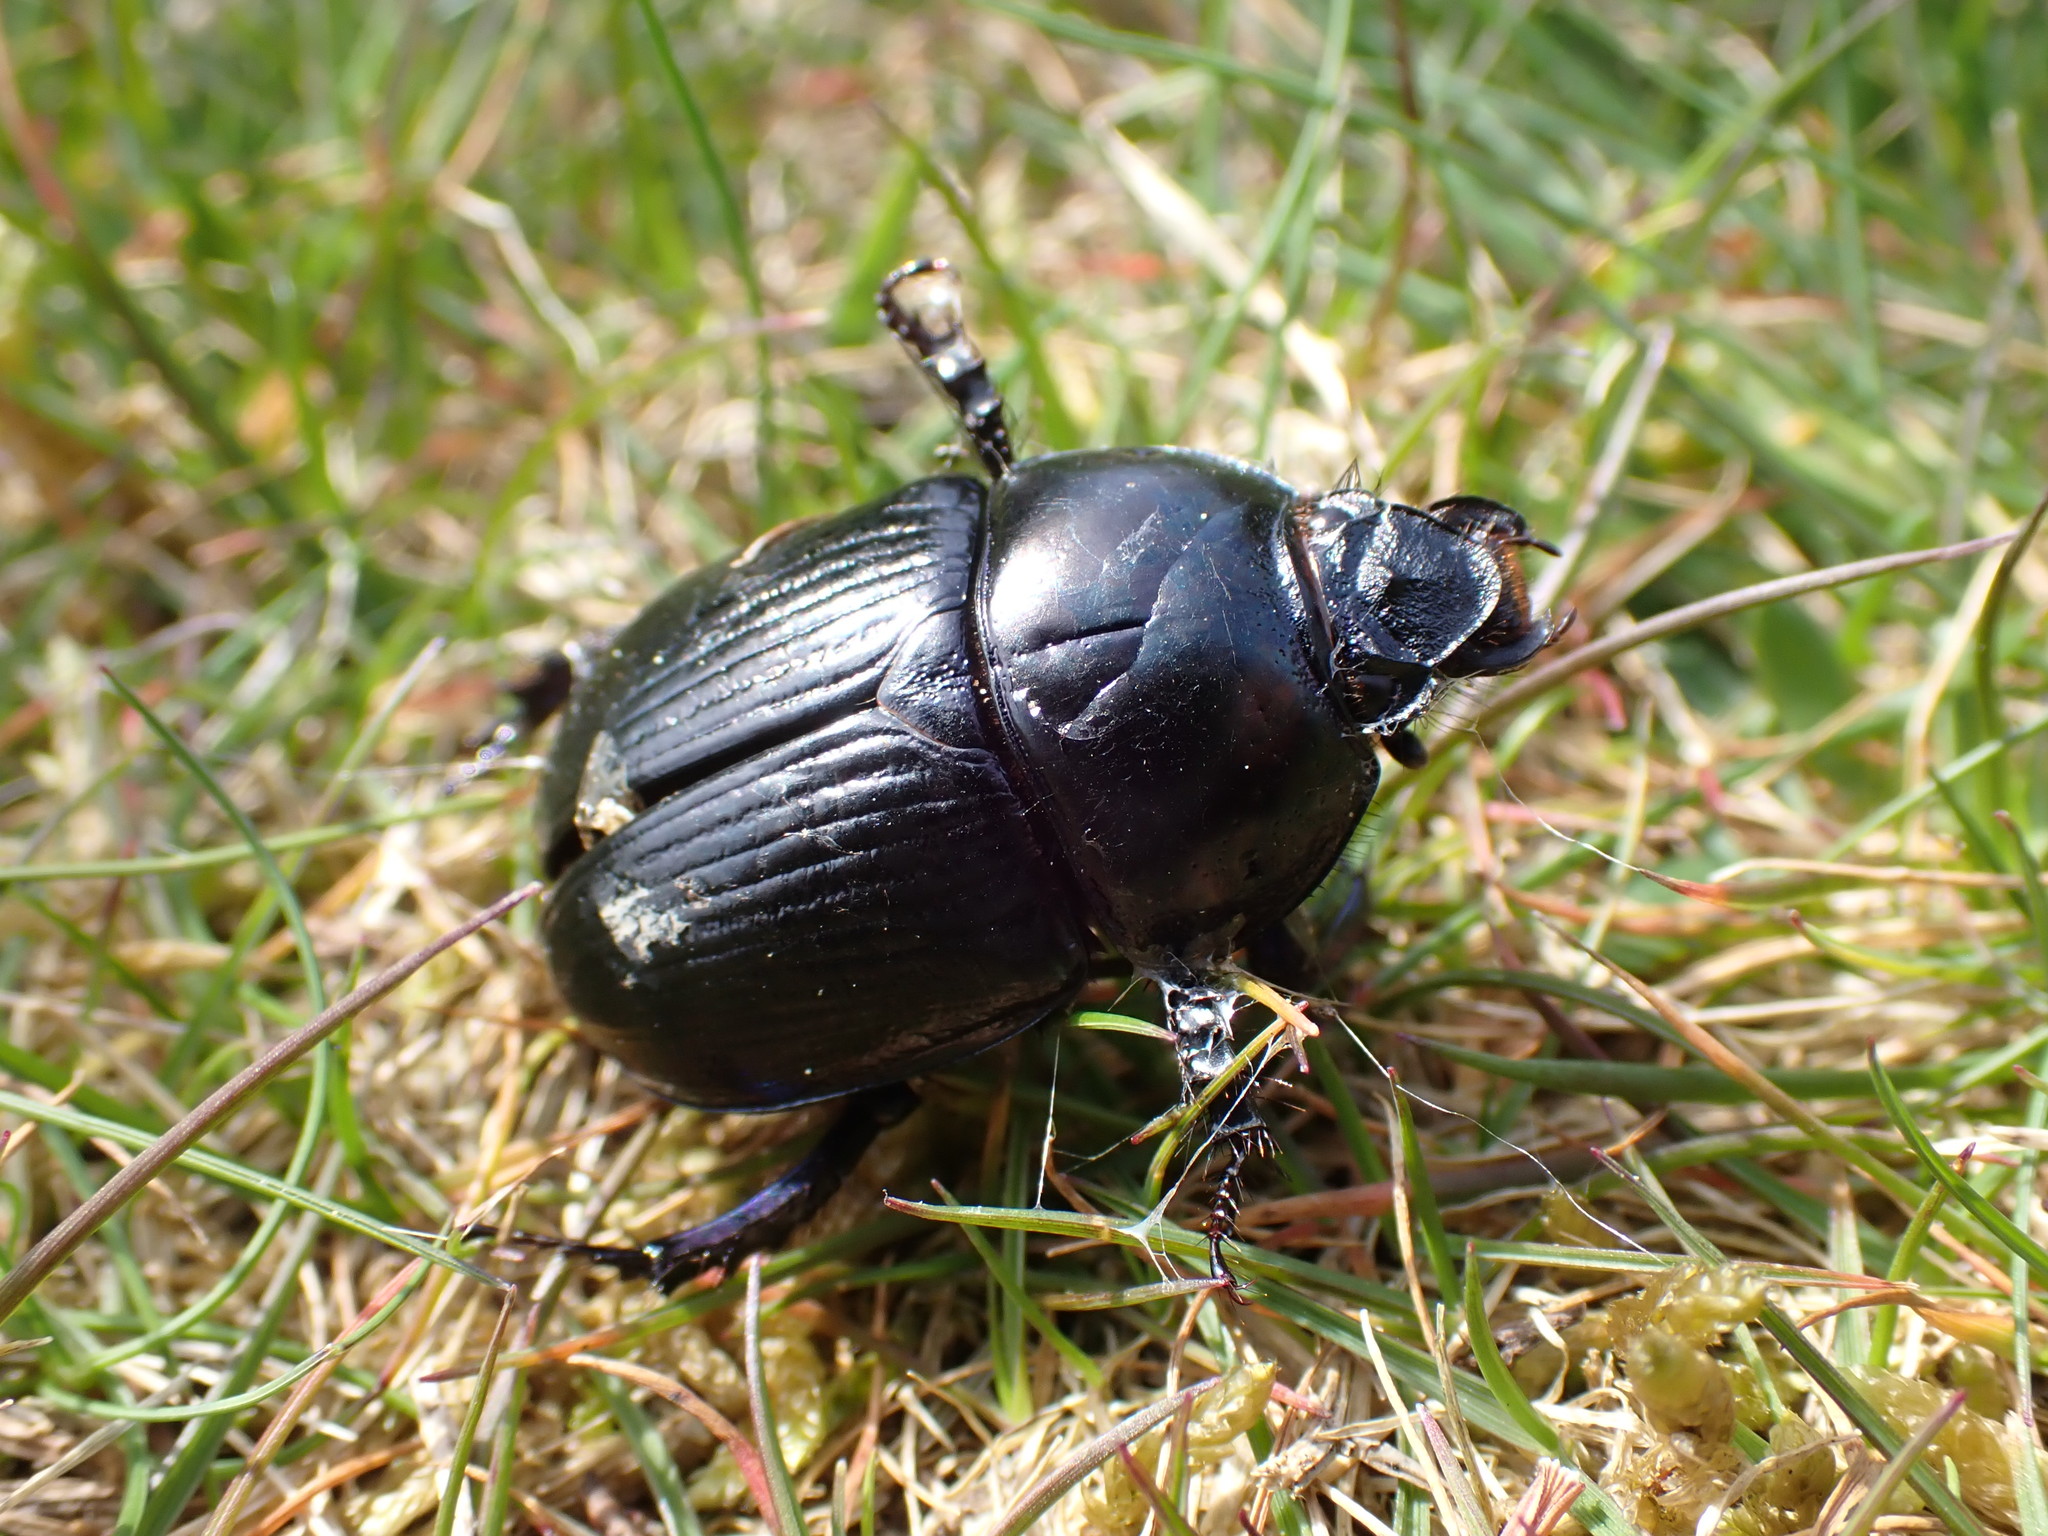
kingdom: Animalia
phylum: Arthropoda
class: Insecta
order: Coleoptera
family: Geotrupidae
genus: Geotrupes
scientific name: Geotrupes stercorarius
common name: Earth-boring dung beetle
